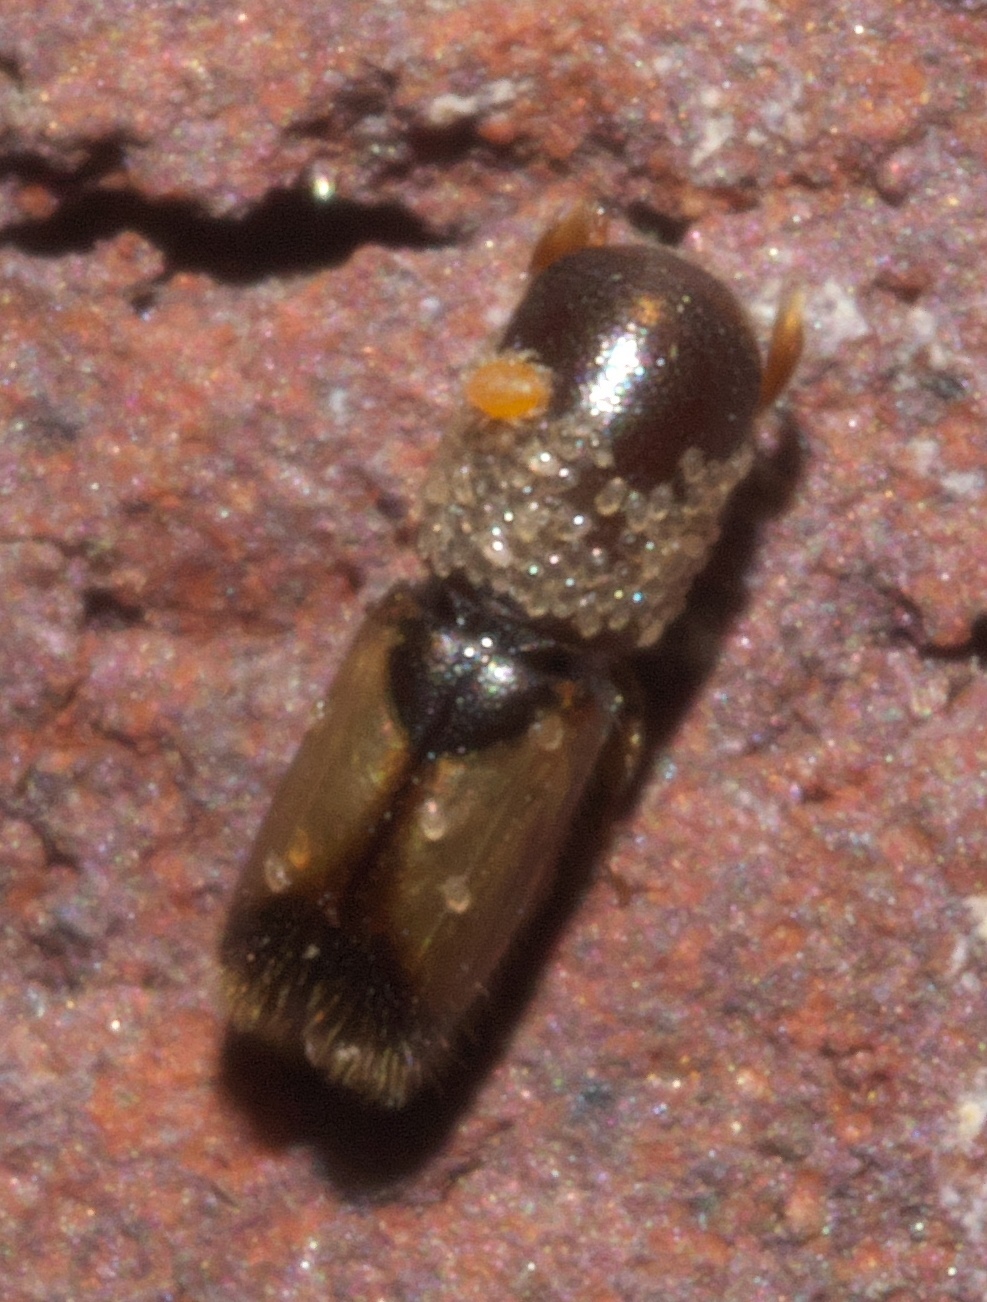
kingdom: Animalia
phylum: Arthropoda
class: Insecta
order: Coleoptera
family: Curculionidae
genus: Monarthrum
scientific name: Monarthrum fasciatum
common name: Yellow-banded timber beetle
